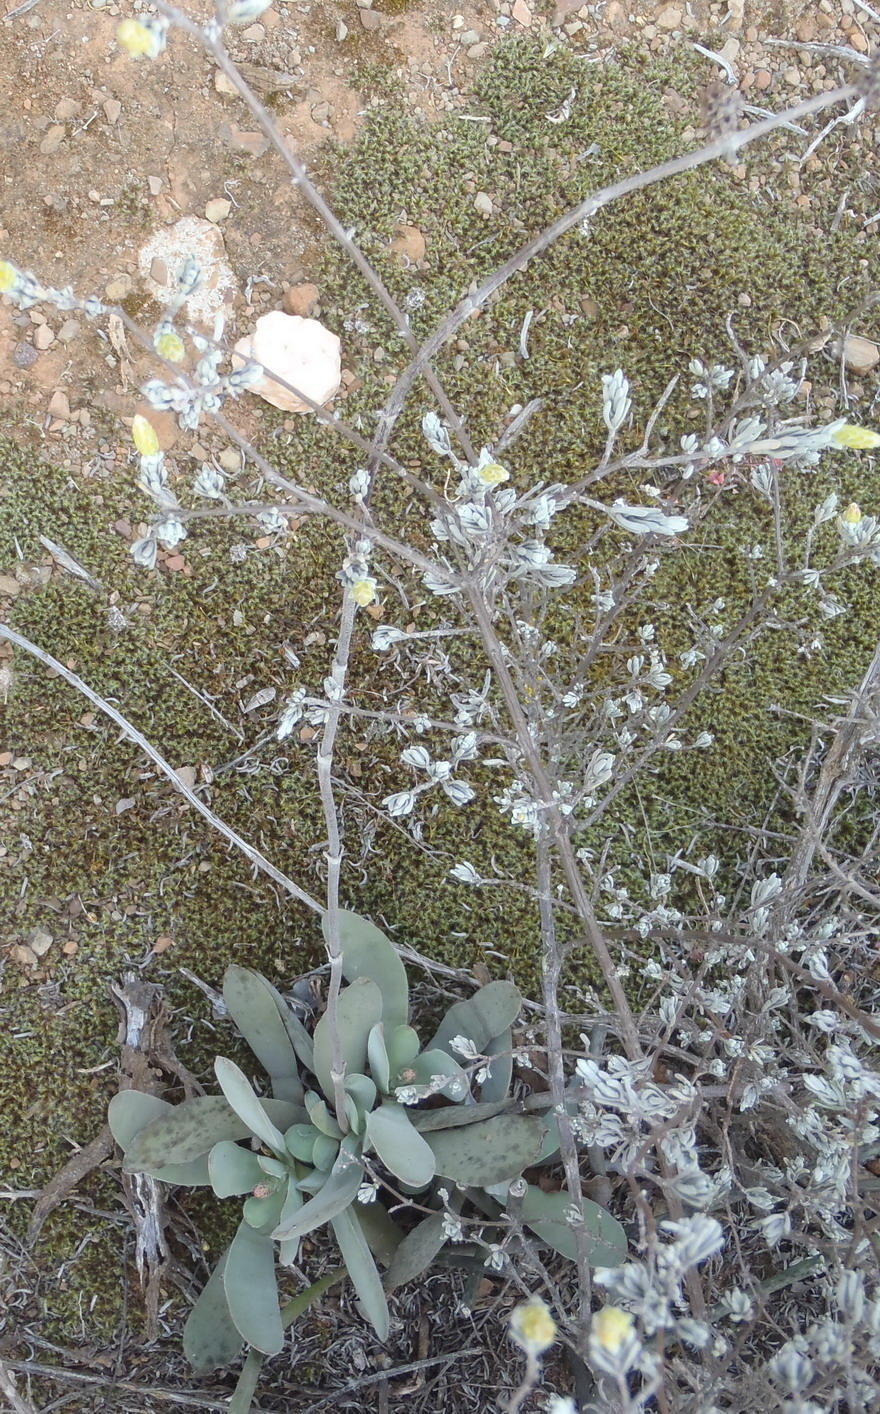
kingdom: Plantae
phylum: Tracheophyta
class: Magnoliopsida
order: Saxifragales
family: Crassulaceae
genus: Crassula
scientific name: Crassula cotyledonis
